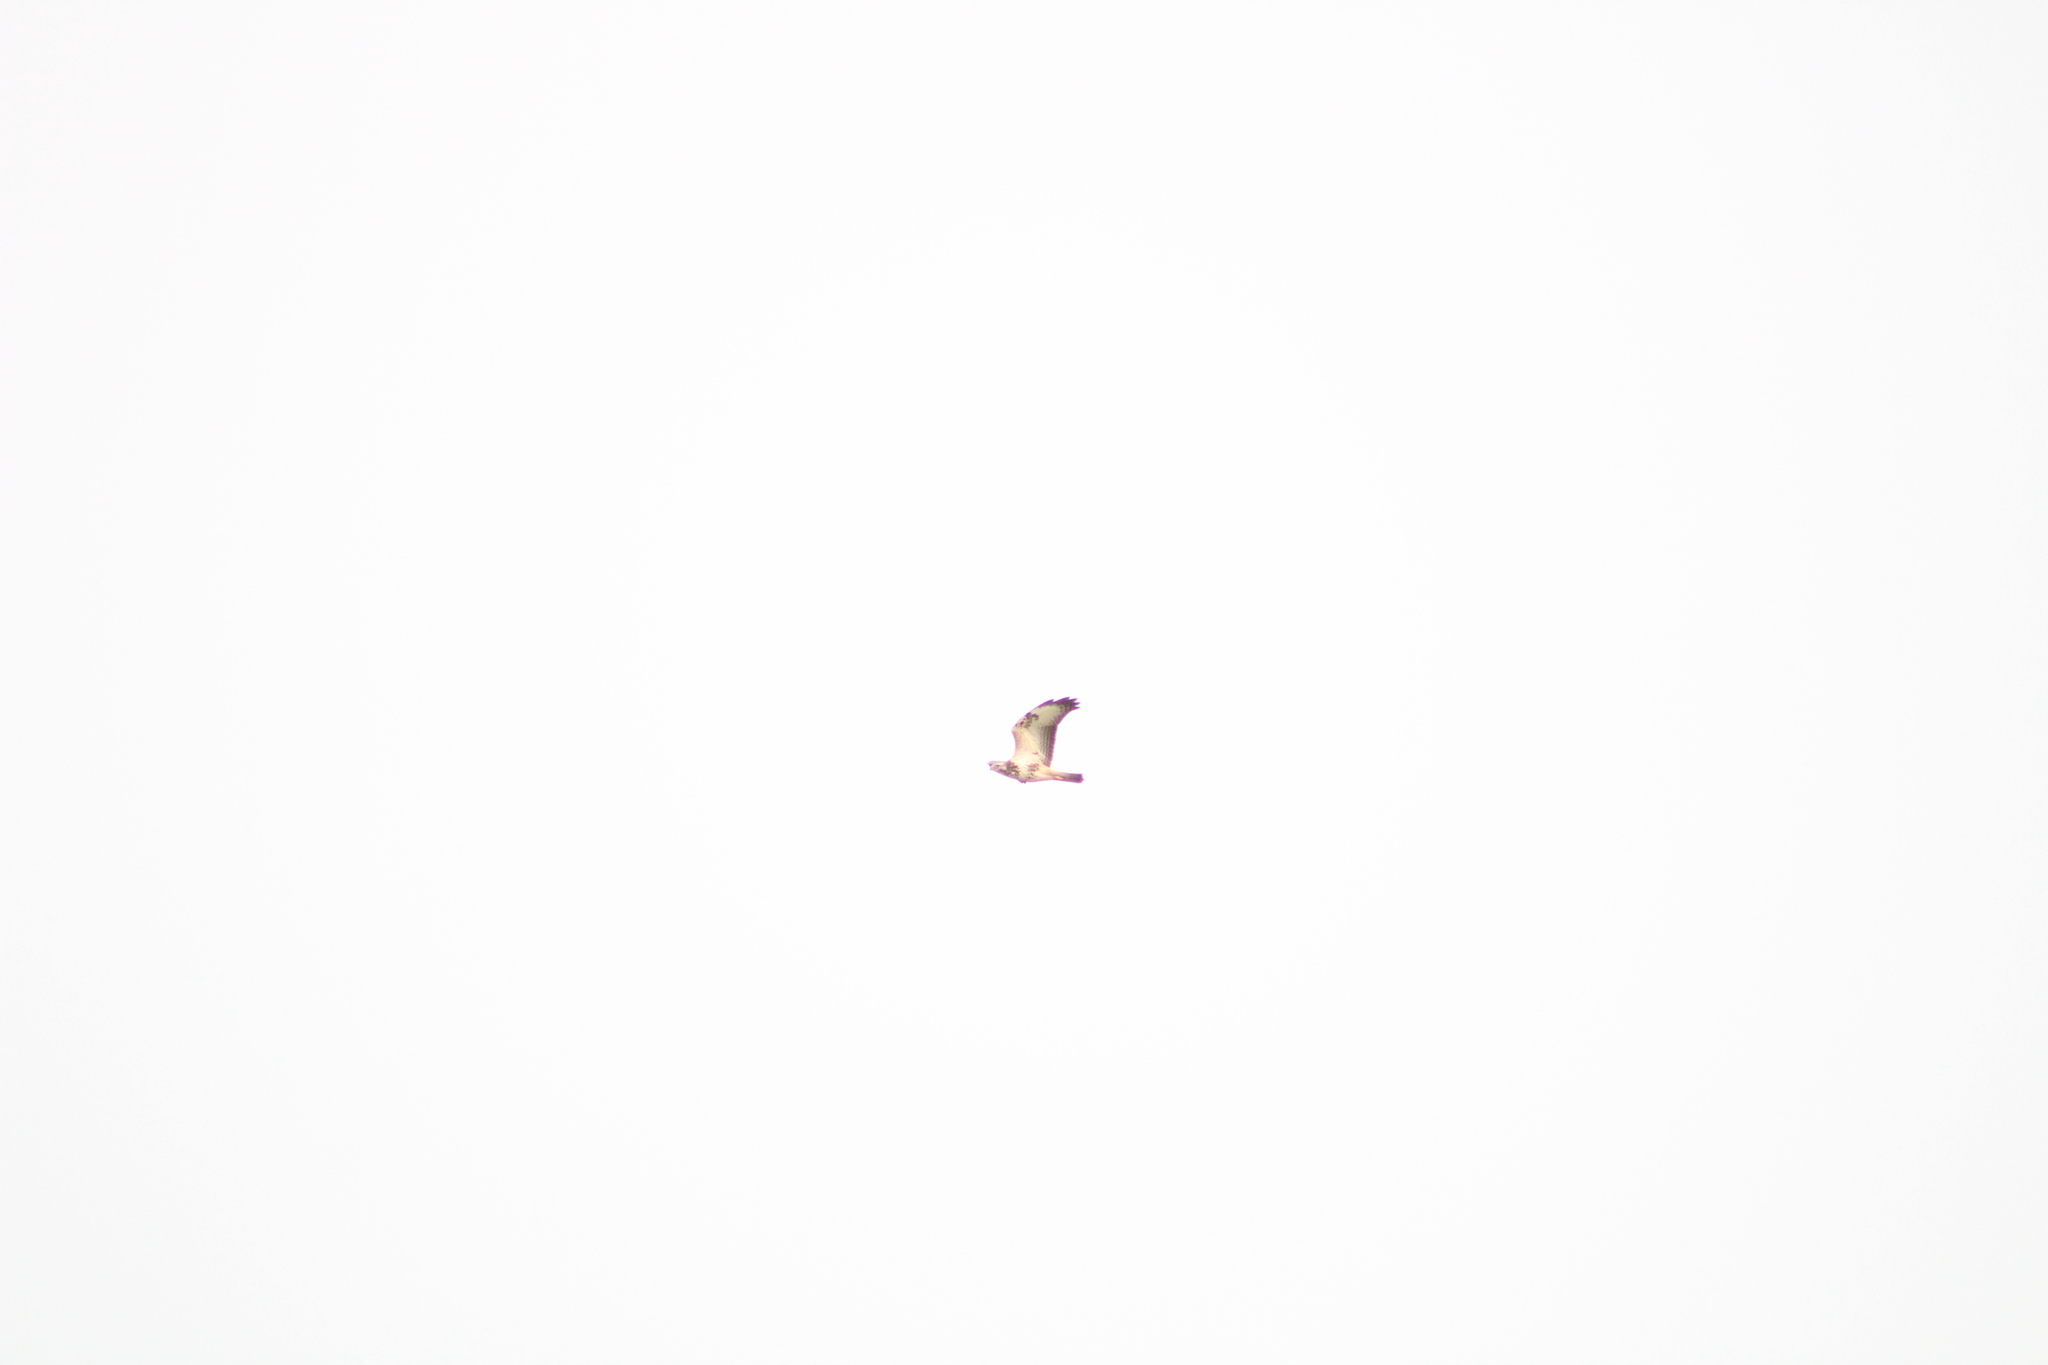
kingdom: Animalia
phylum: Chordata
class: Aves
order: Accipitriformes
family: Accipitridae
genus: Buteo
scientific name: Buteo buteo
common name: Common buzzard
